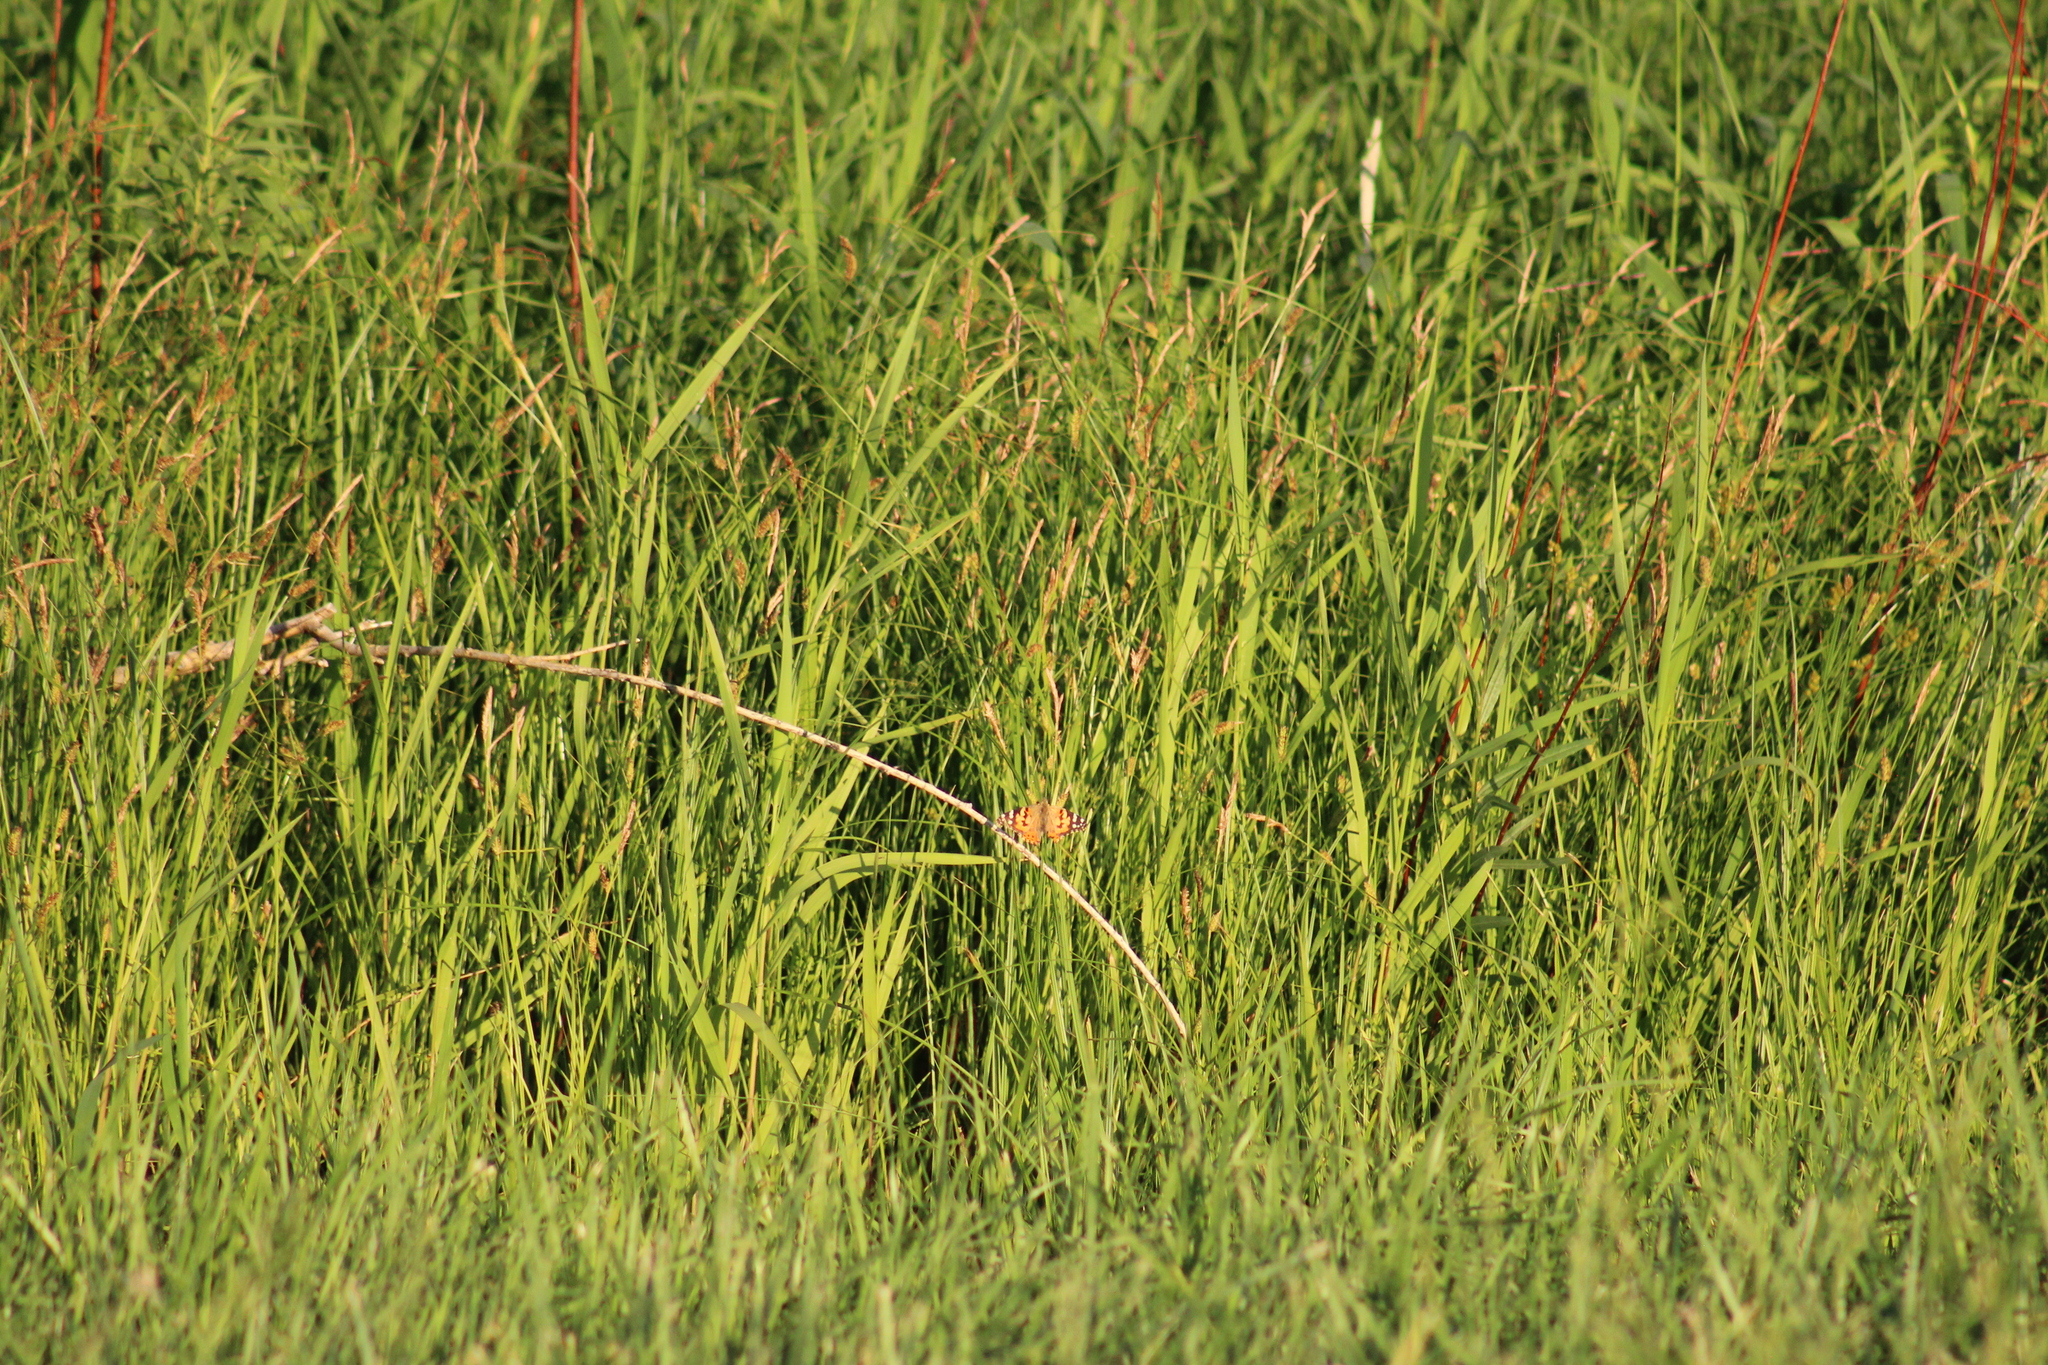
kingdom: Animalia
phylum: Arthropoda
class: Insecta
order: Lepidoptera
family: Nymphalidae
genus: Vanessa
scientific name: Vanessa cardui
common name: Painted lady
